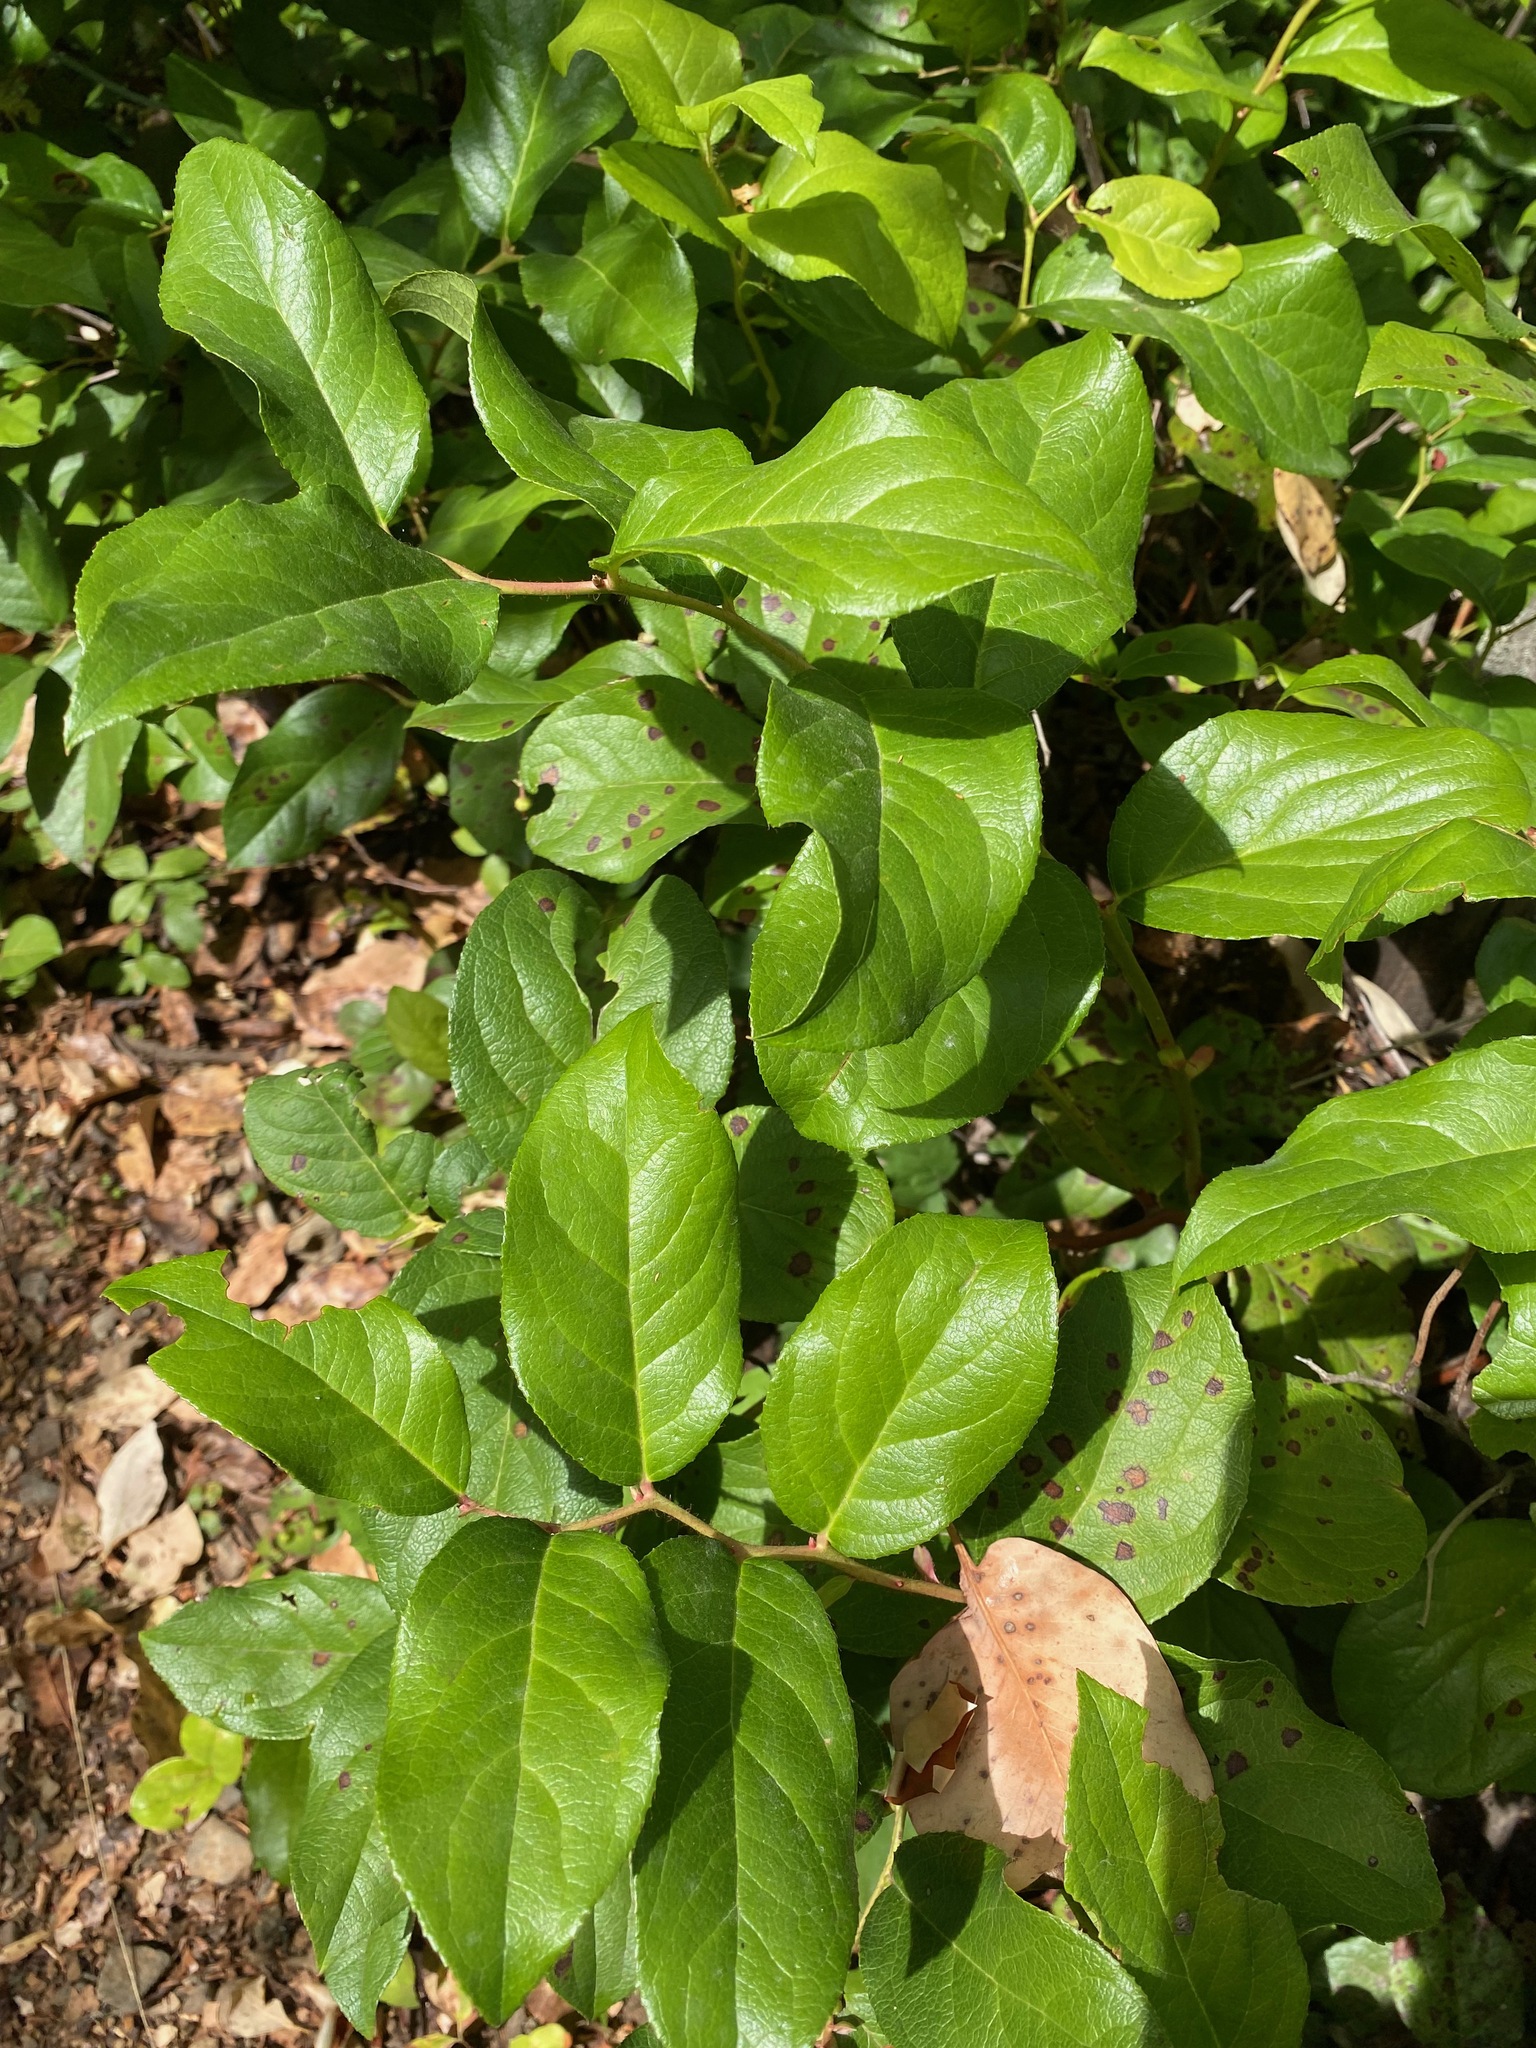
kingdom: Plantae
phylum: Tracheophyta
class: Magnoliopsida
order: Ericales
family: Ericaceae
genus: Gaultheria
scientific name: Gaultheria shallon
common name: Shallon
